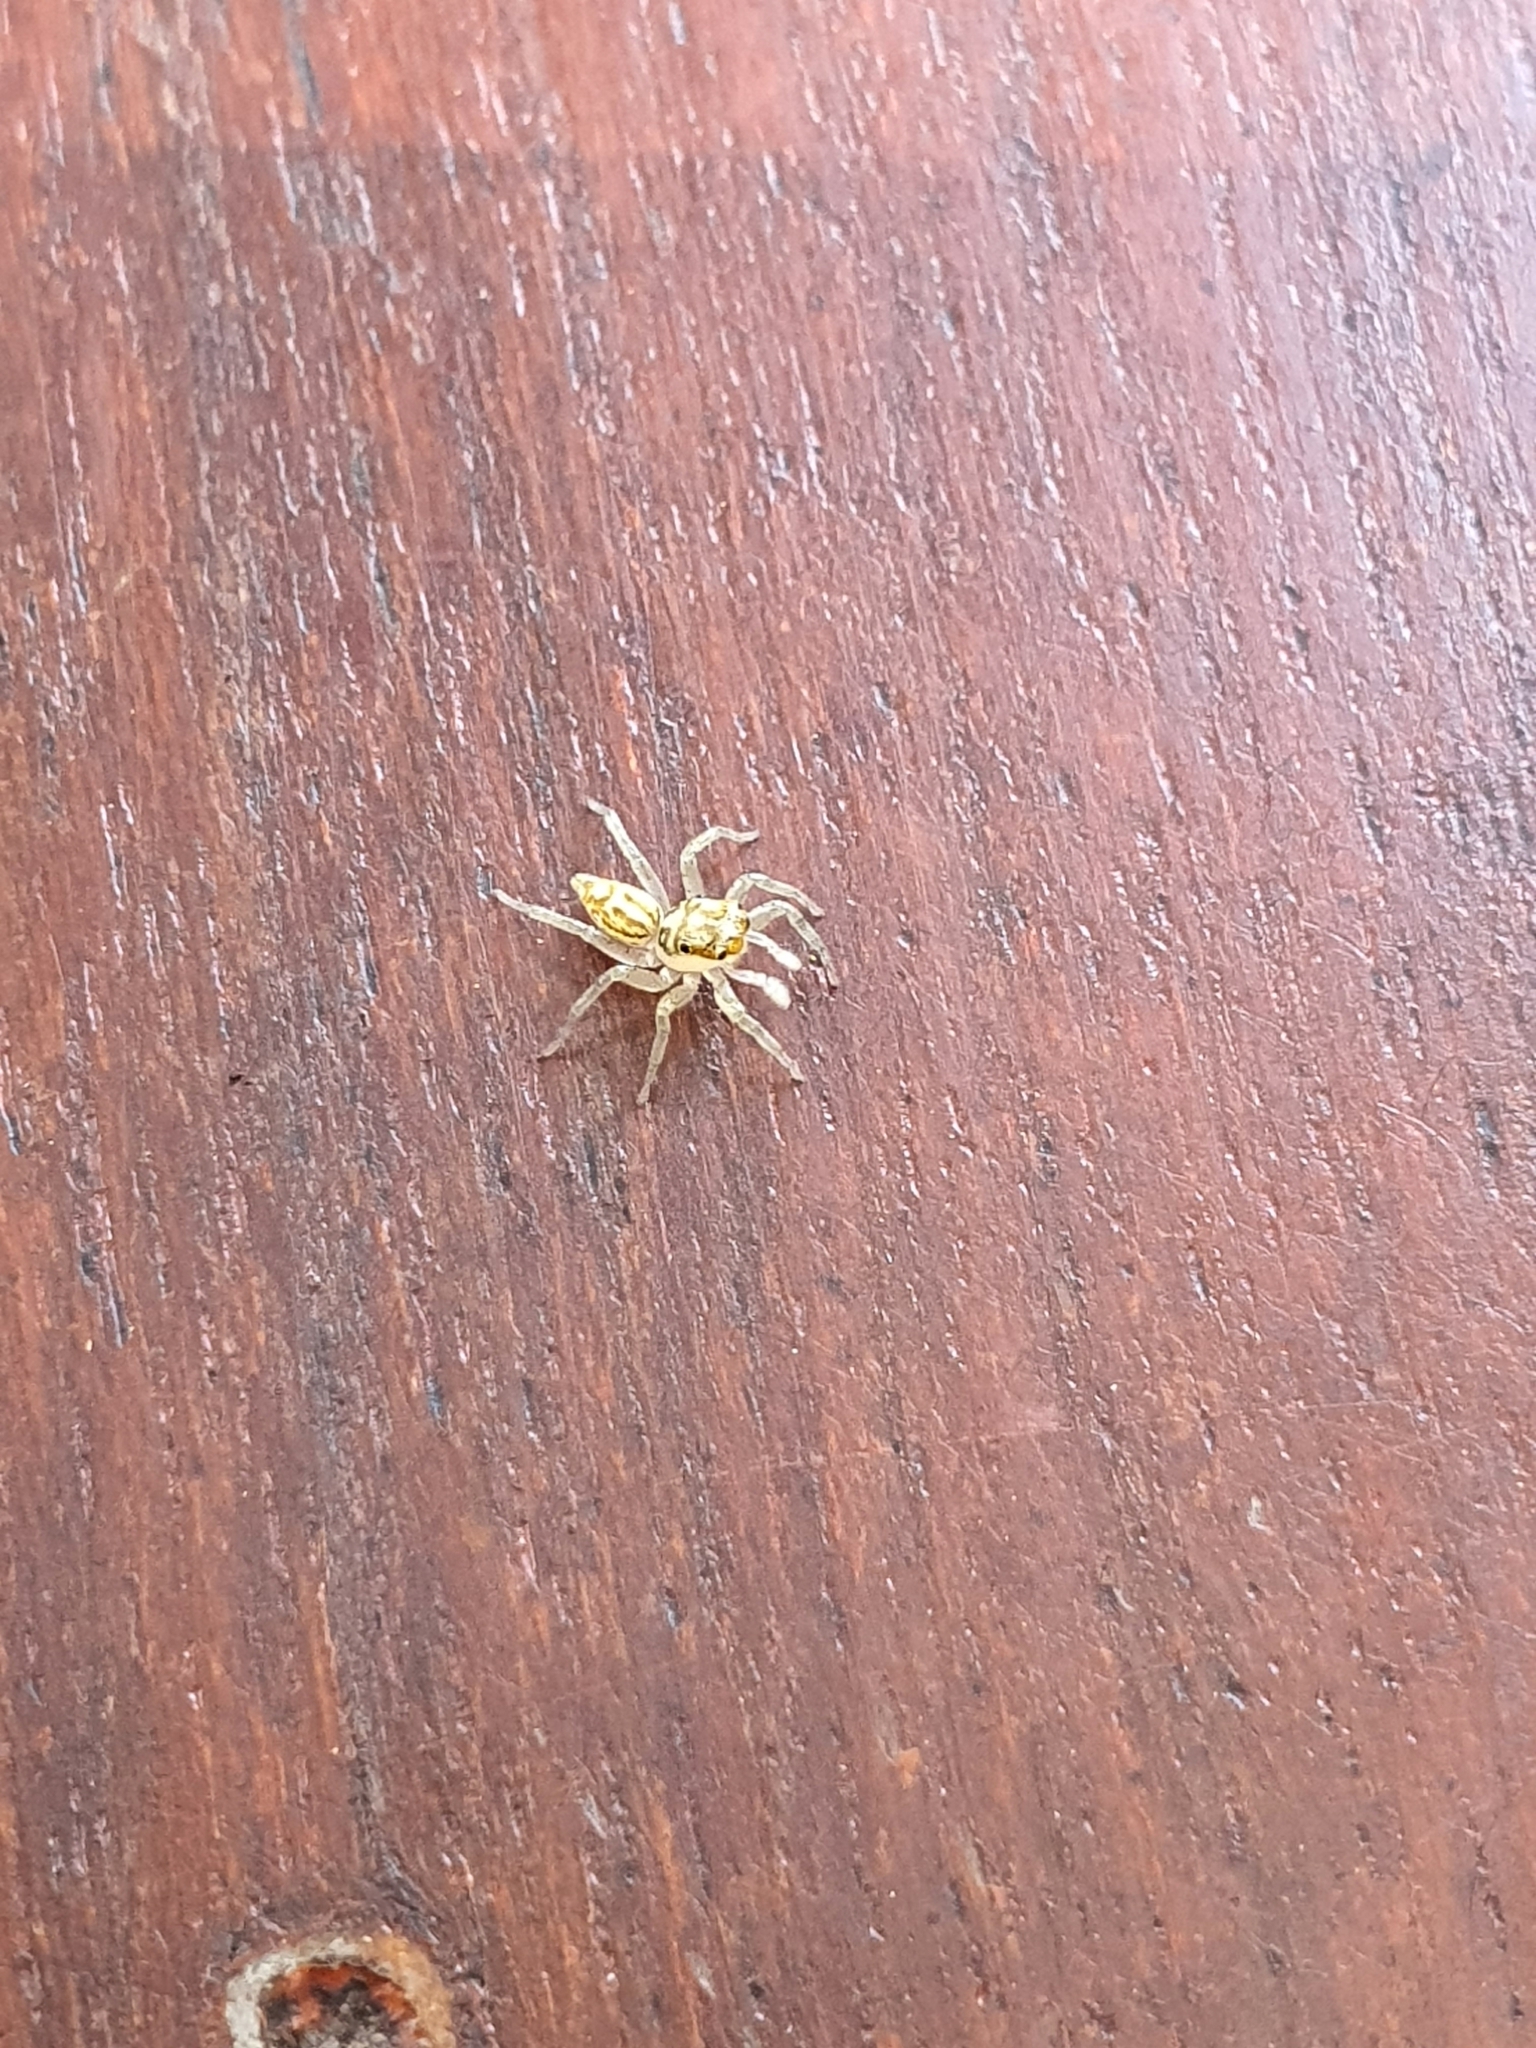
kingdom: Animalia
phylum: Arthropoda
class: Arachnida
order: Araneae
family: Salticidae
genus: Phintelloides
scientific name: Phintelloides versicolor
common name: Jumping spider
